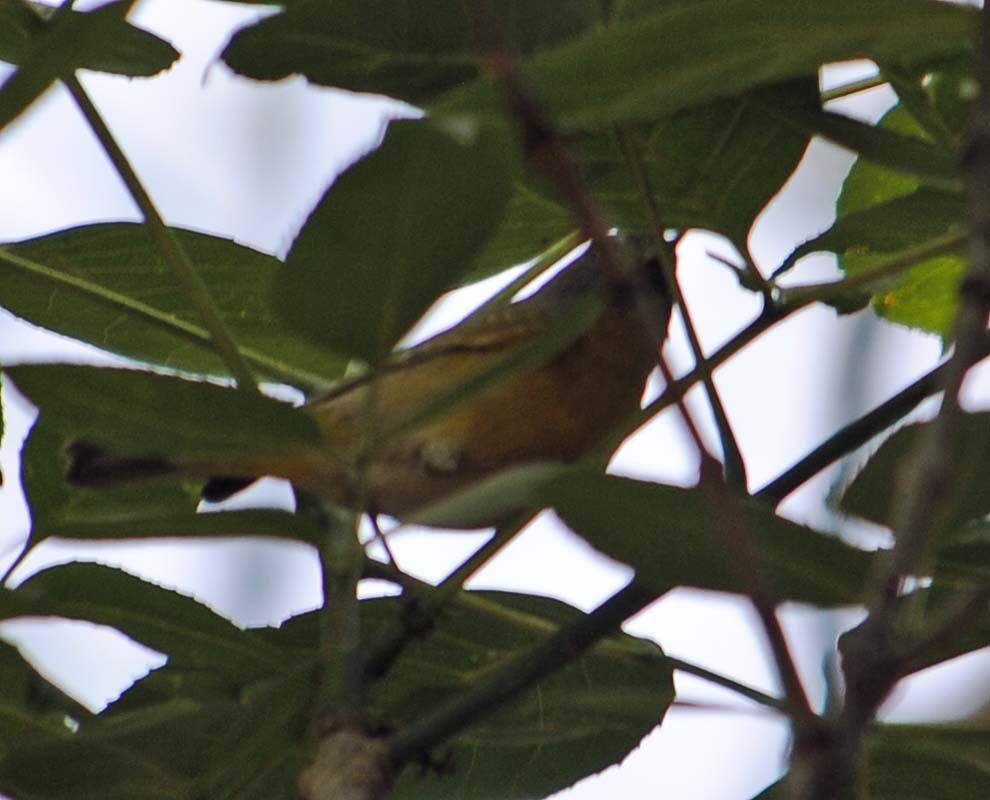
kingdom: Animalia
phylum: Chordata
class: Aves
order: Passeriformes
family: Parulidae
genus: Leiothlypis
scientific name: Leiothlypis ruficapilla
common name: Nashville warbler
